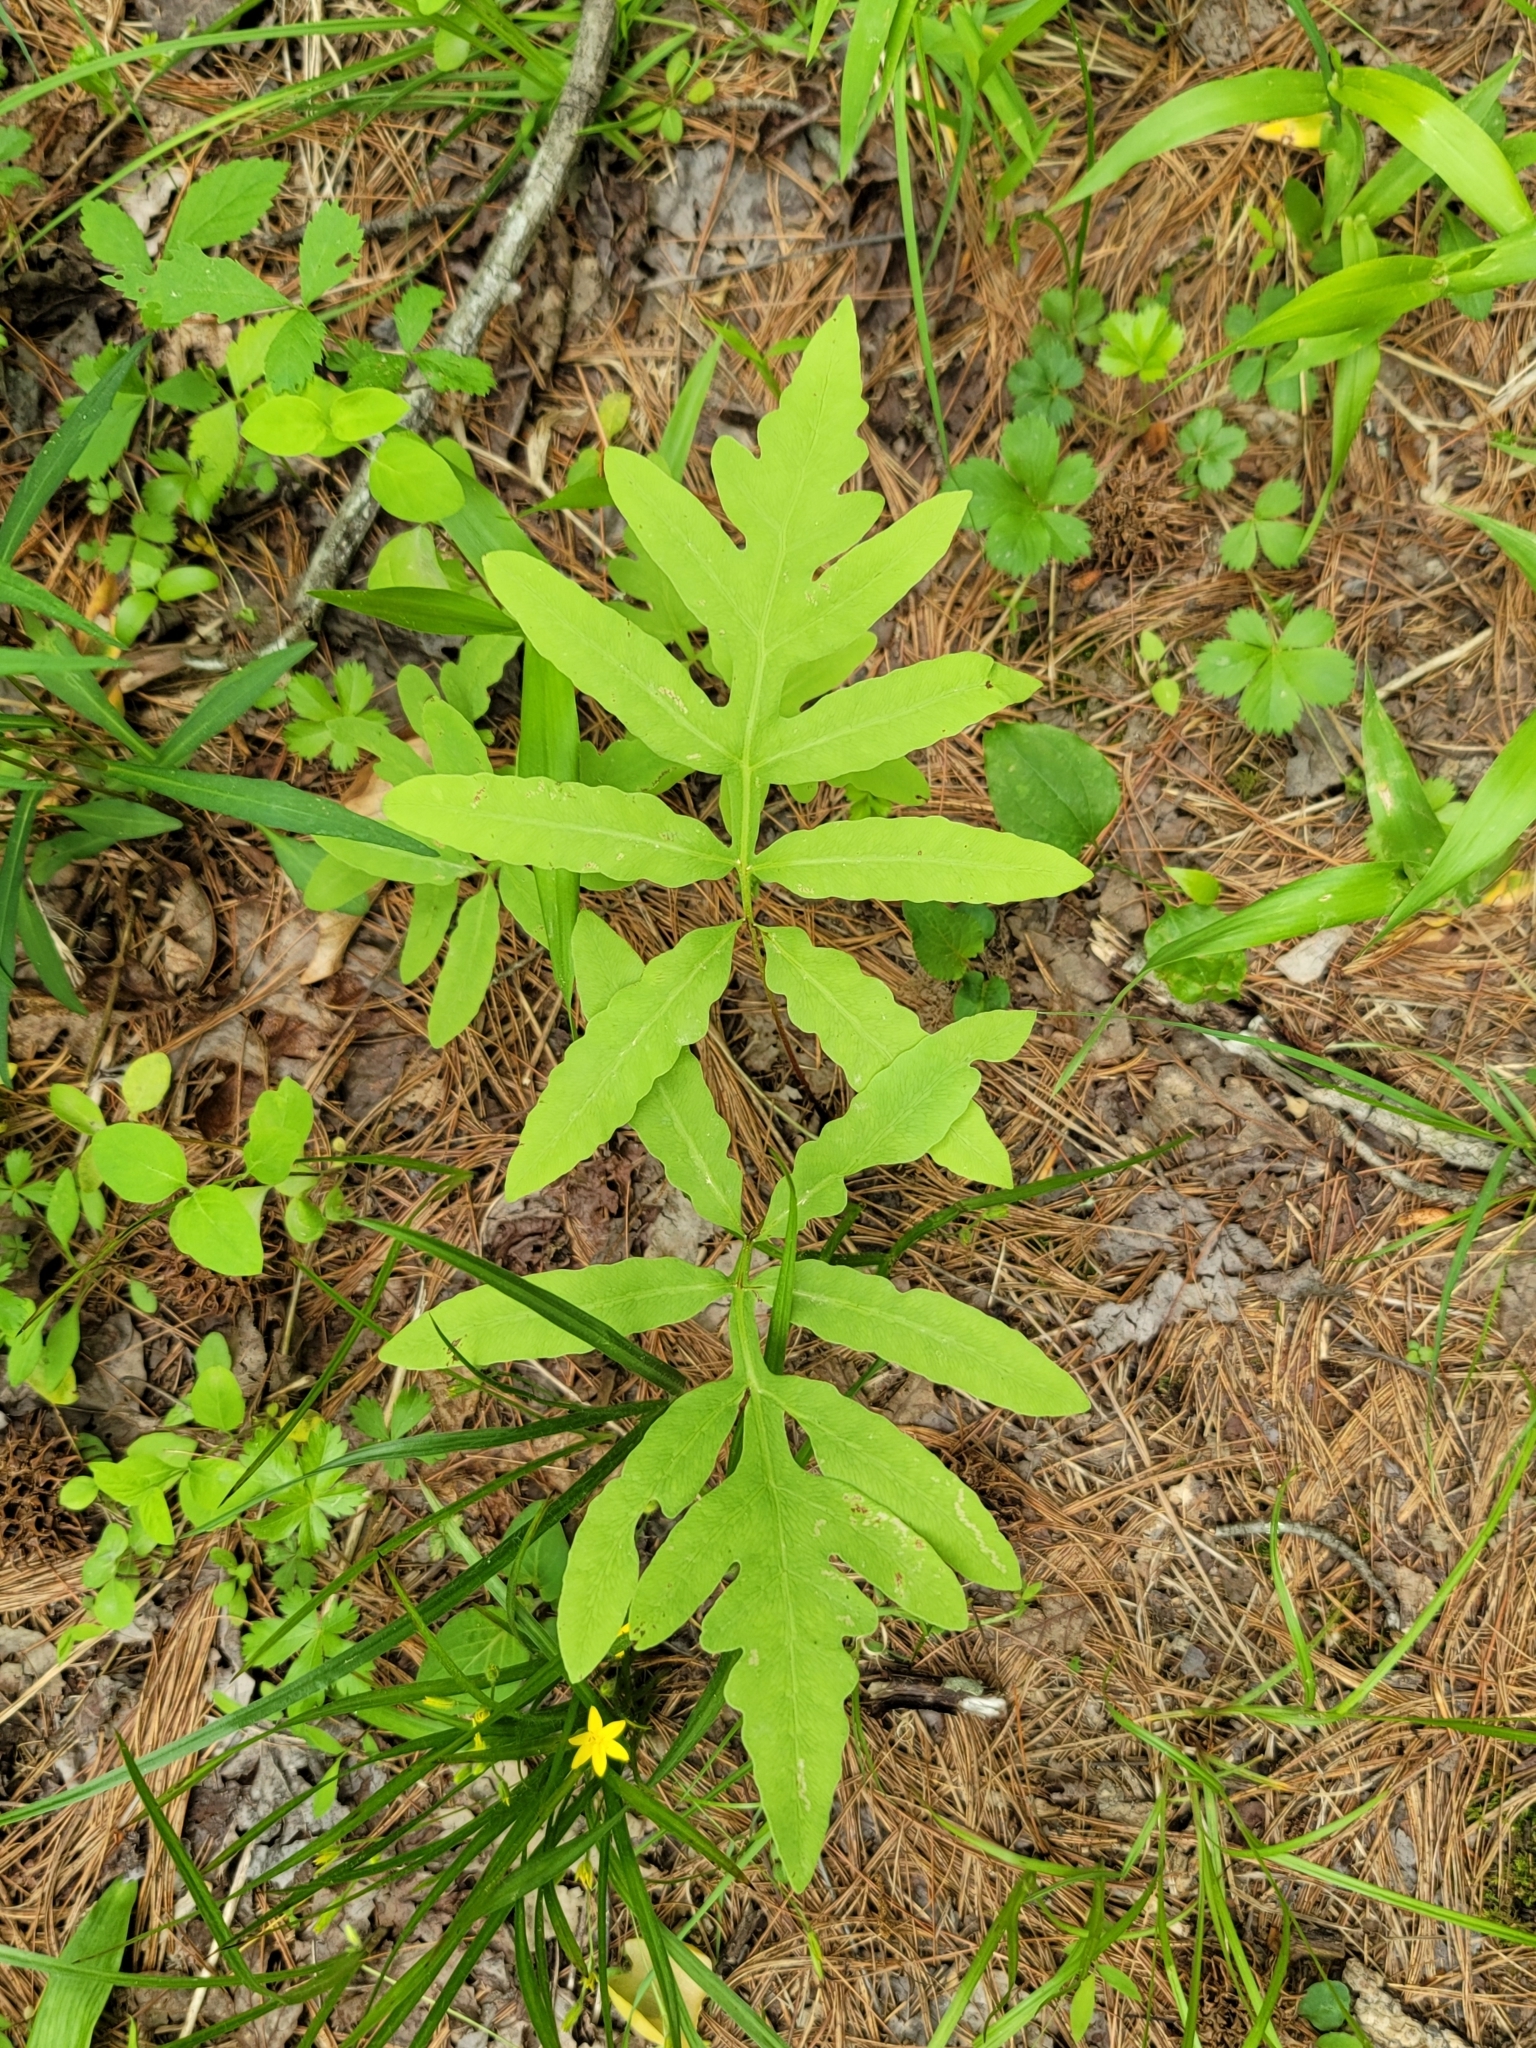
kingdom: Plantae
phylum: Tracheophyta
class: Polypodiopsida
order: Polypodiales
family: Onocleaceae
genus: Onoclea
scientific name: Onoclea sensibilis
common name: Sensitive fern
